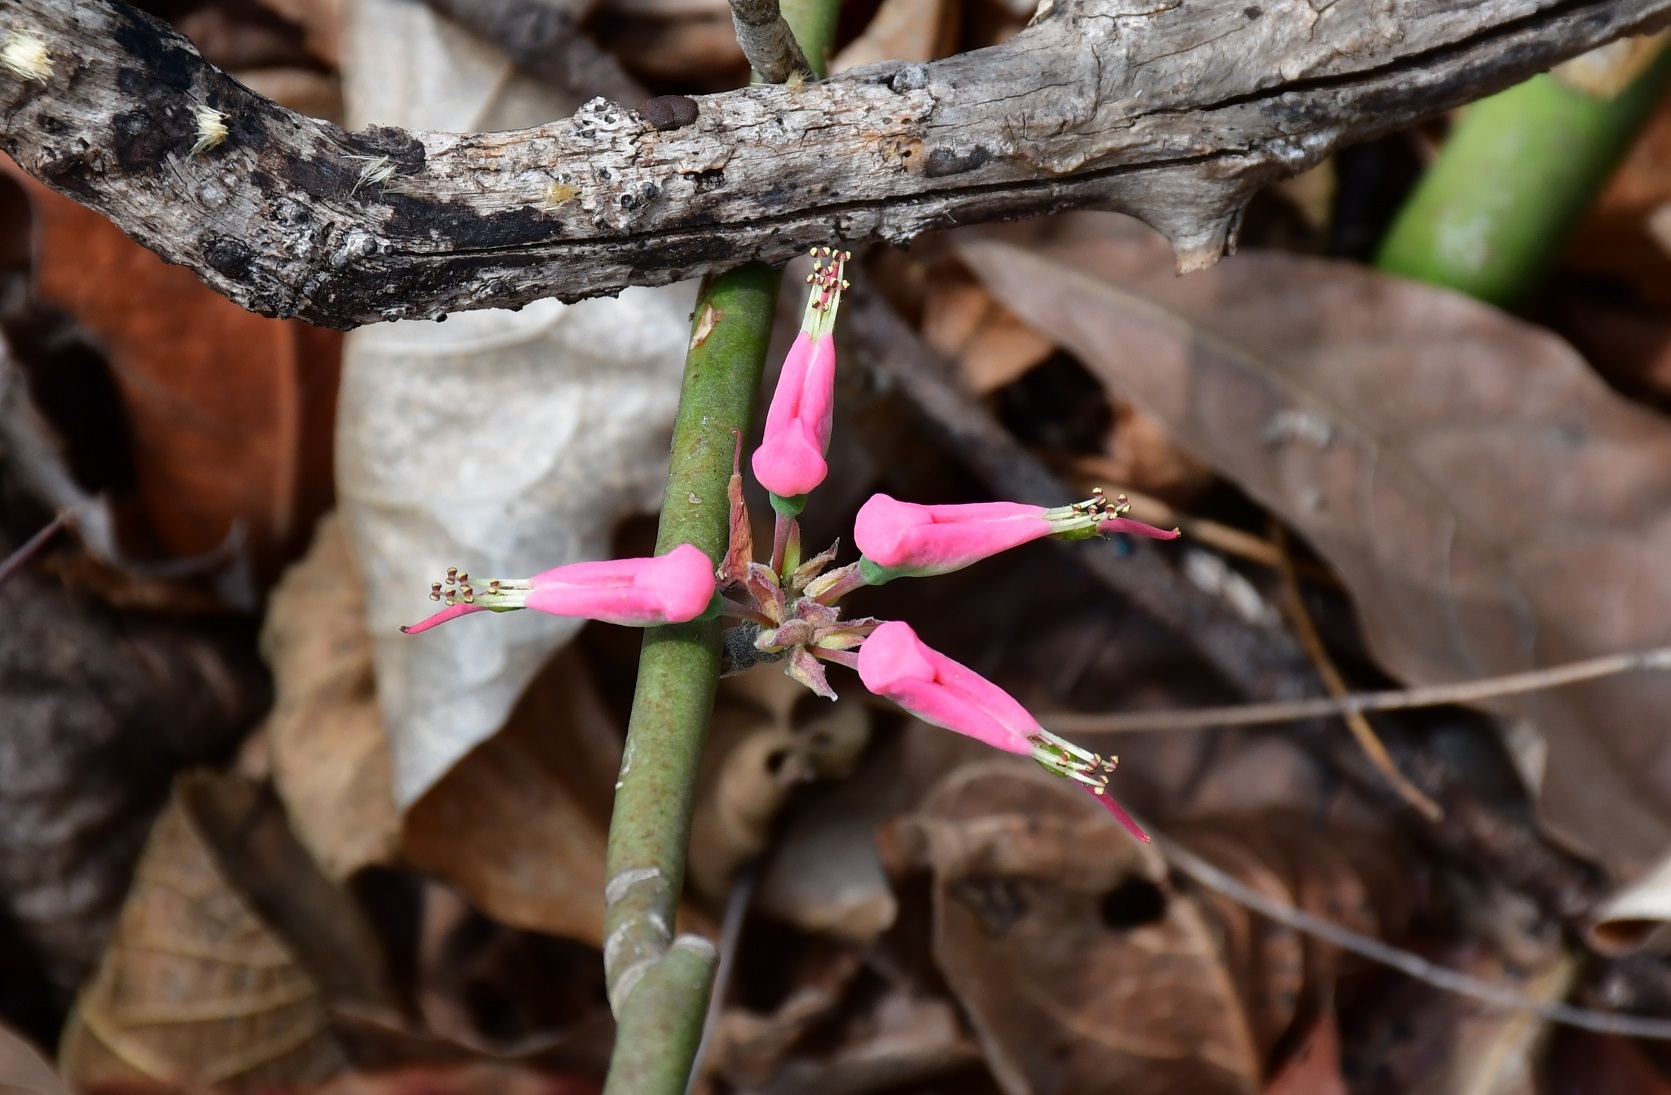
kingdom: Plantae
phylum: Tracheophyta
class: Magnoliopsida
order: Malpighiales
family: Euphorbiaceae
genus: Euphorbia
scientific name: Euphorbia tithymaloides
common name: Slipperplant
